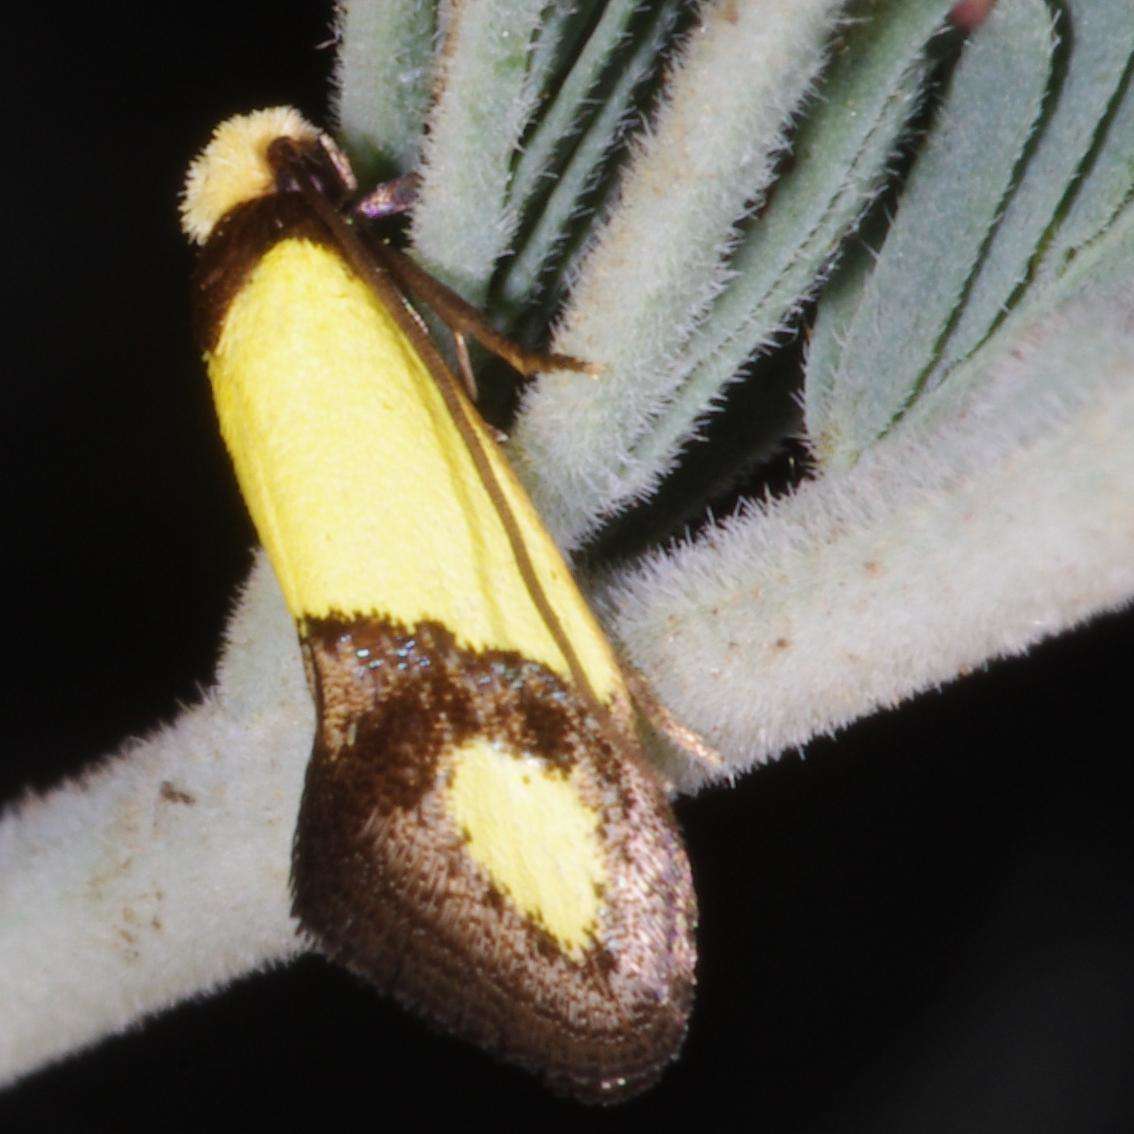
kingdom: Animalia
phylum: Arthropoda
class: Insecta
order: Lepidoptera
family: Tineidae
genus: Edosa
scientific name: Edosa fraudulens
